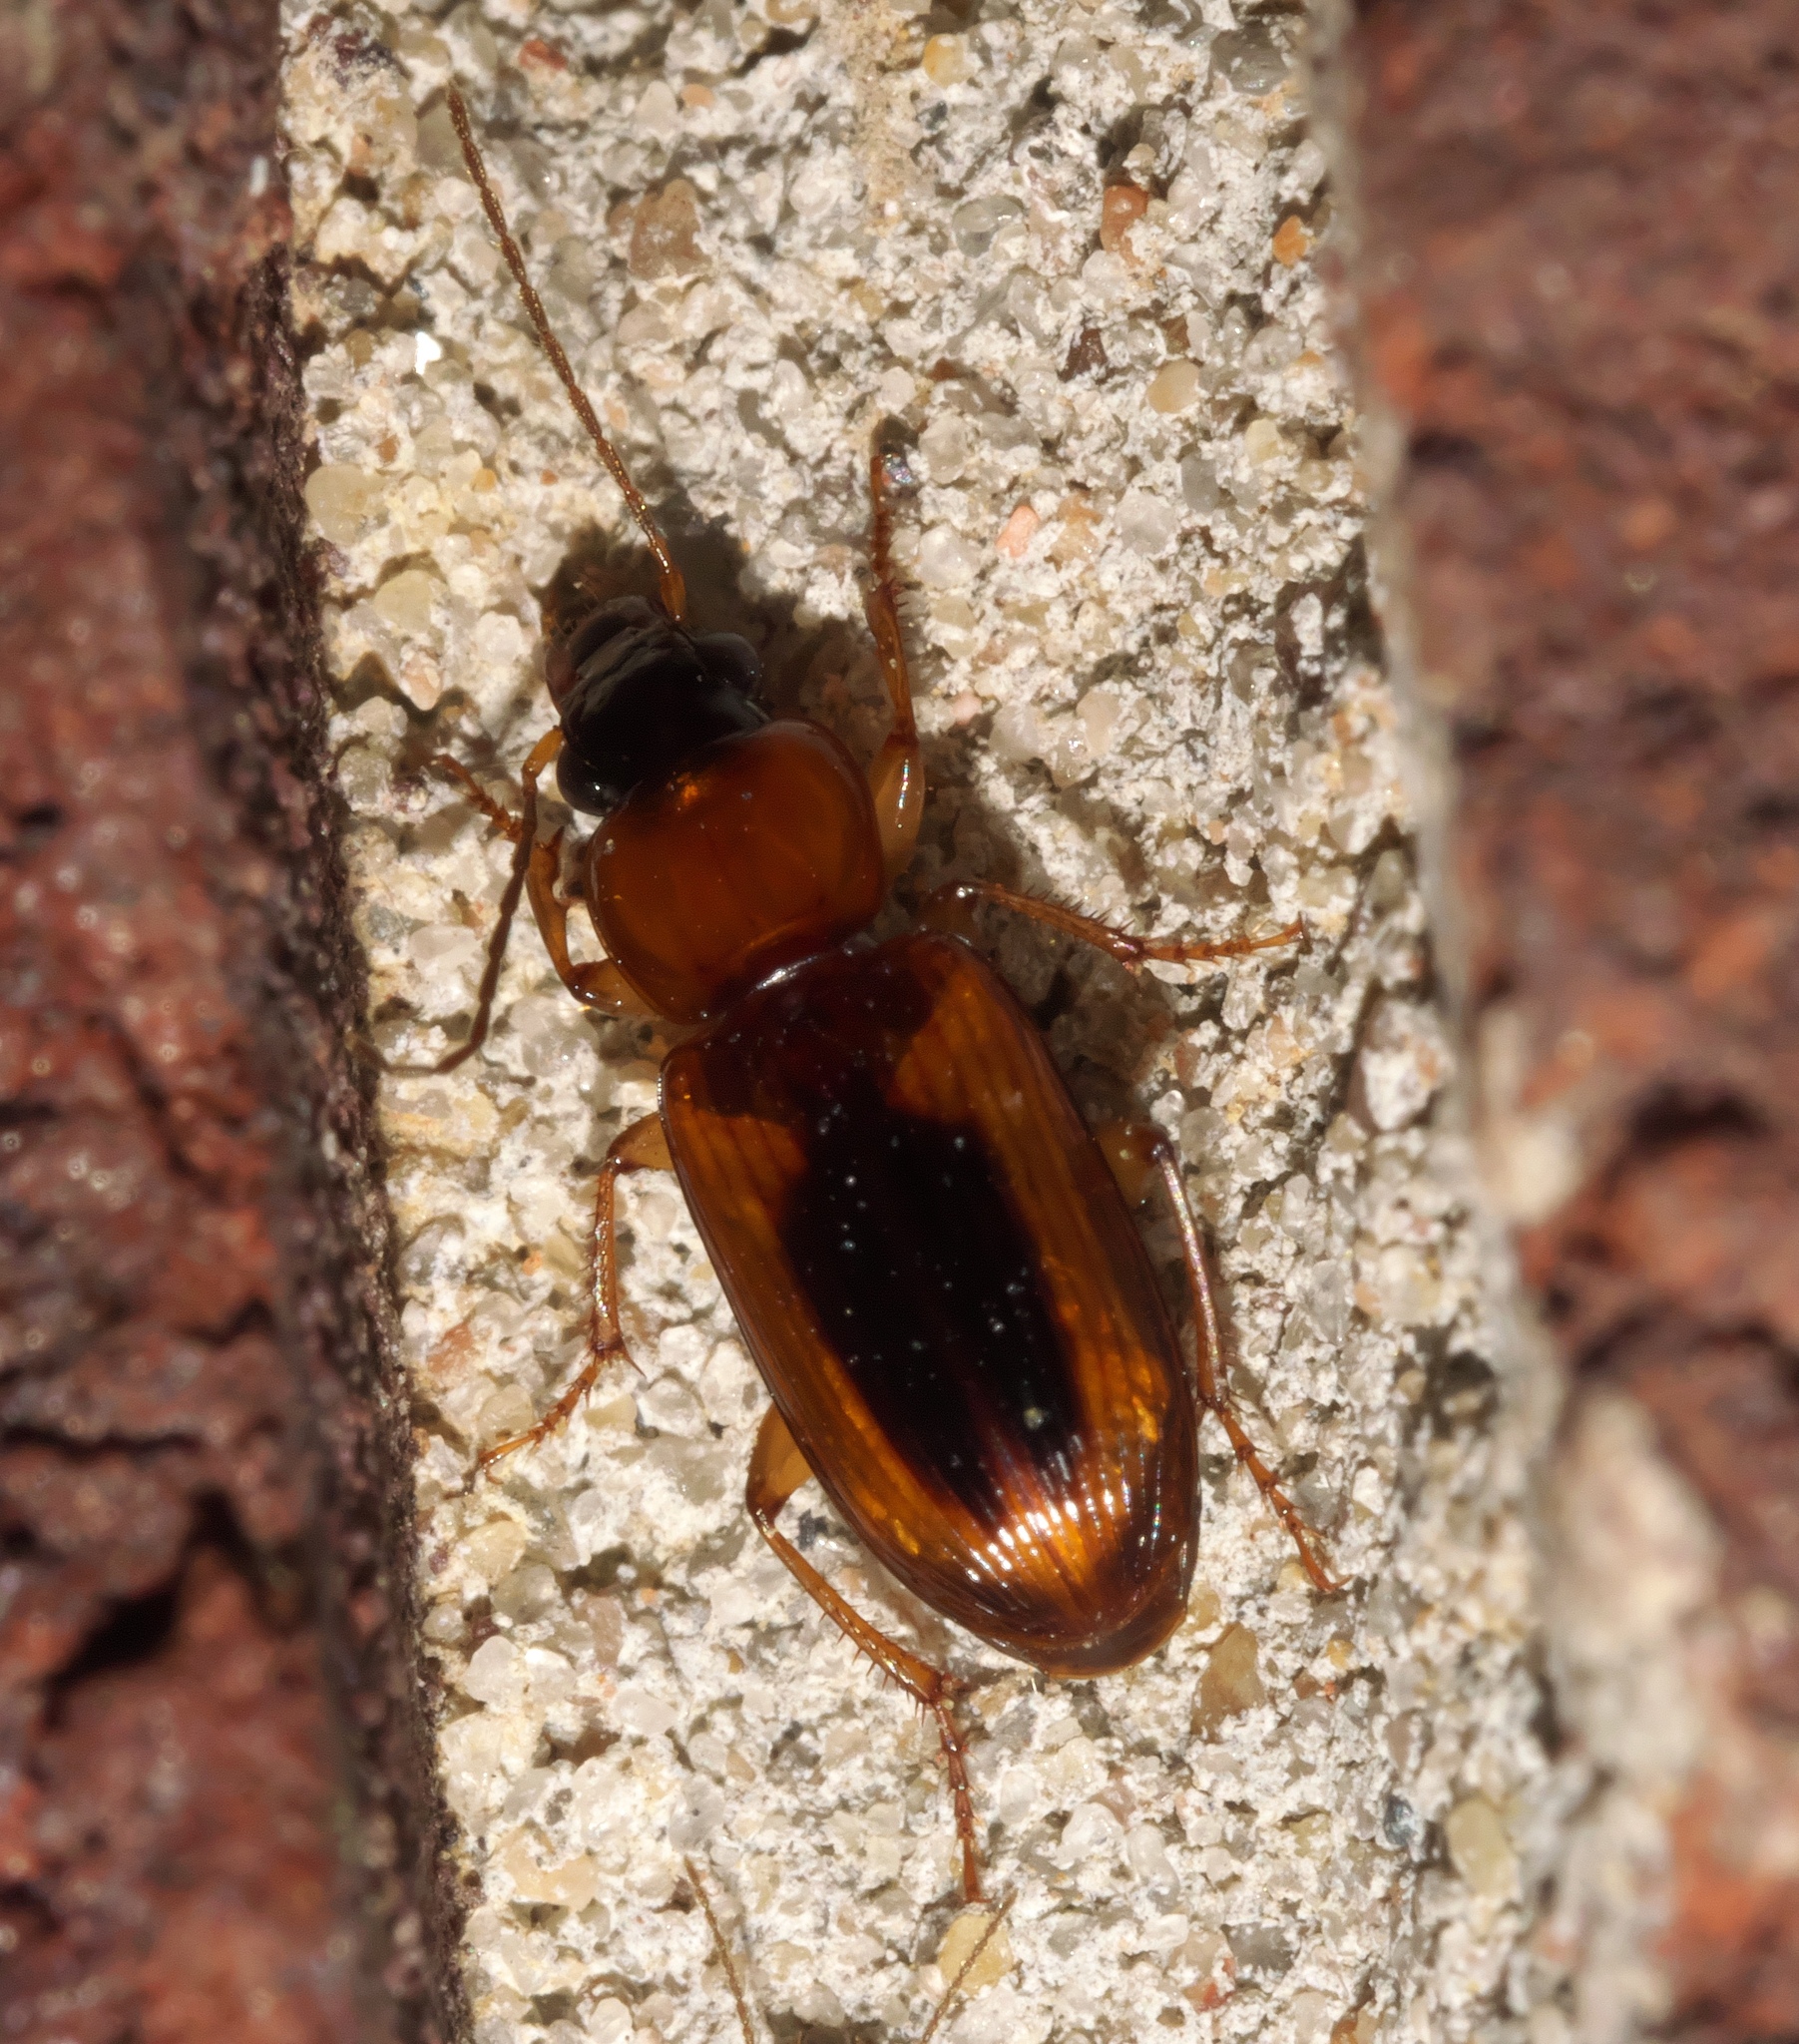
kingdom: Animalia
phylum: Arthropoda
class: Insecta
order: Coleoptera
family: Carabidae
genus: Stenolophus
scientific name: Stenolophus dissimilis
